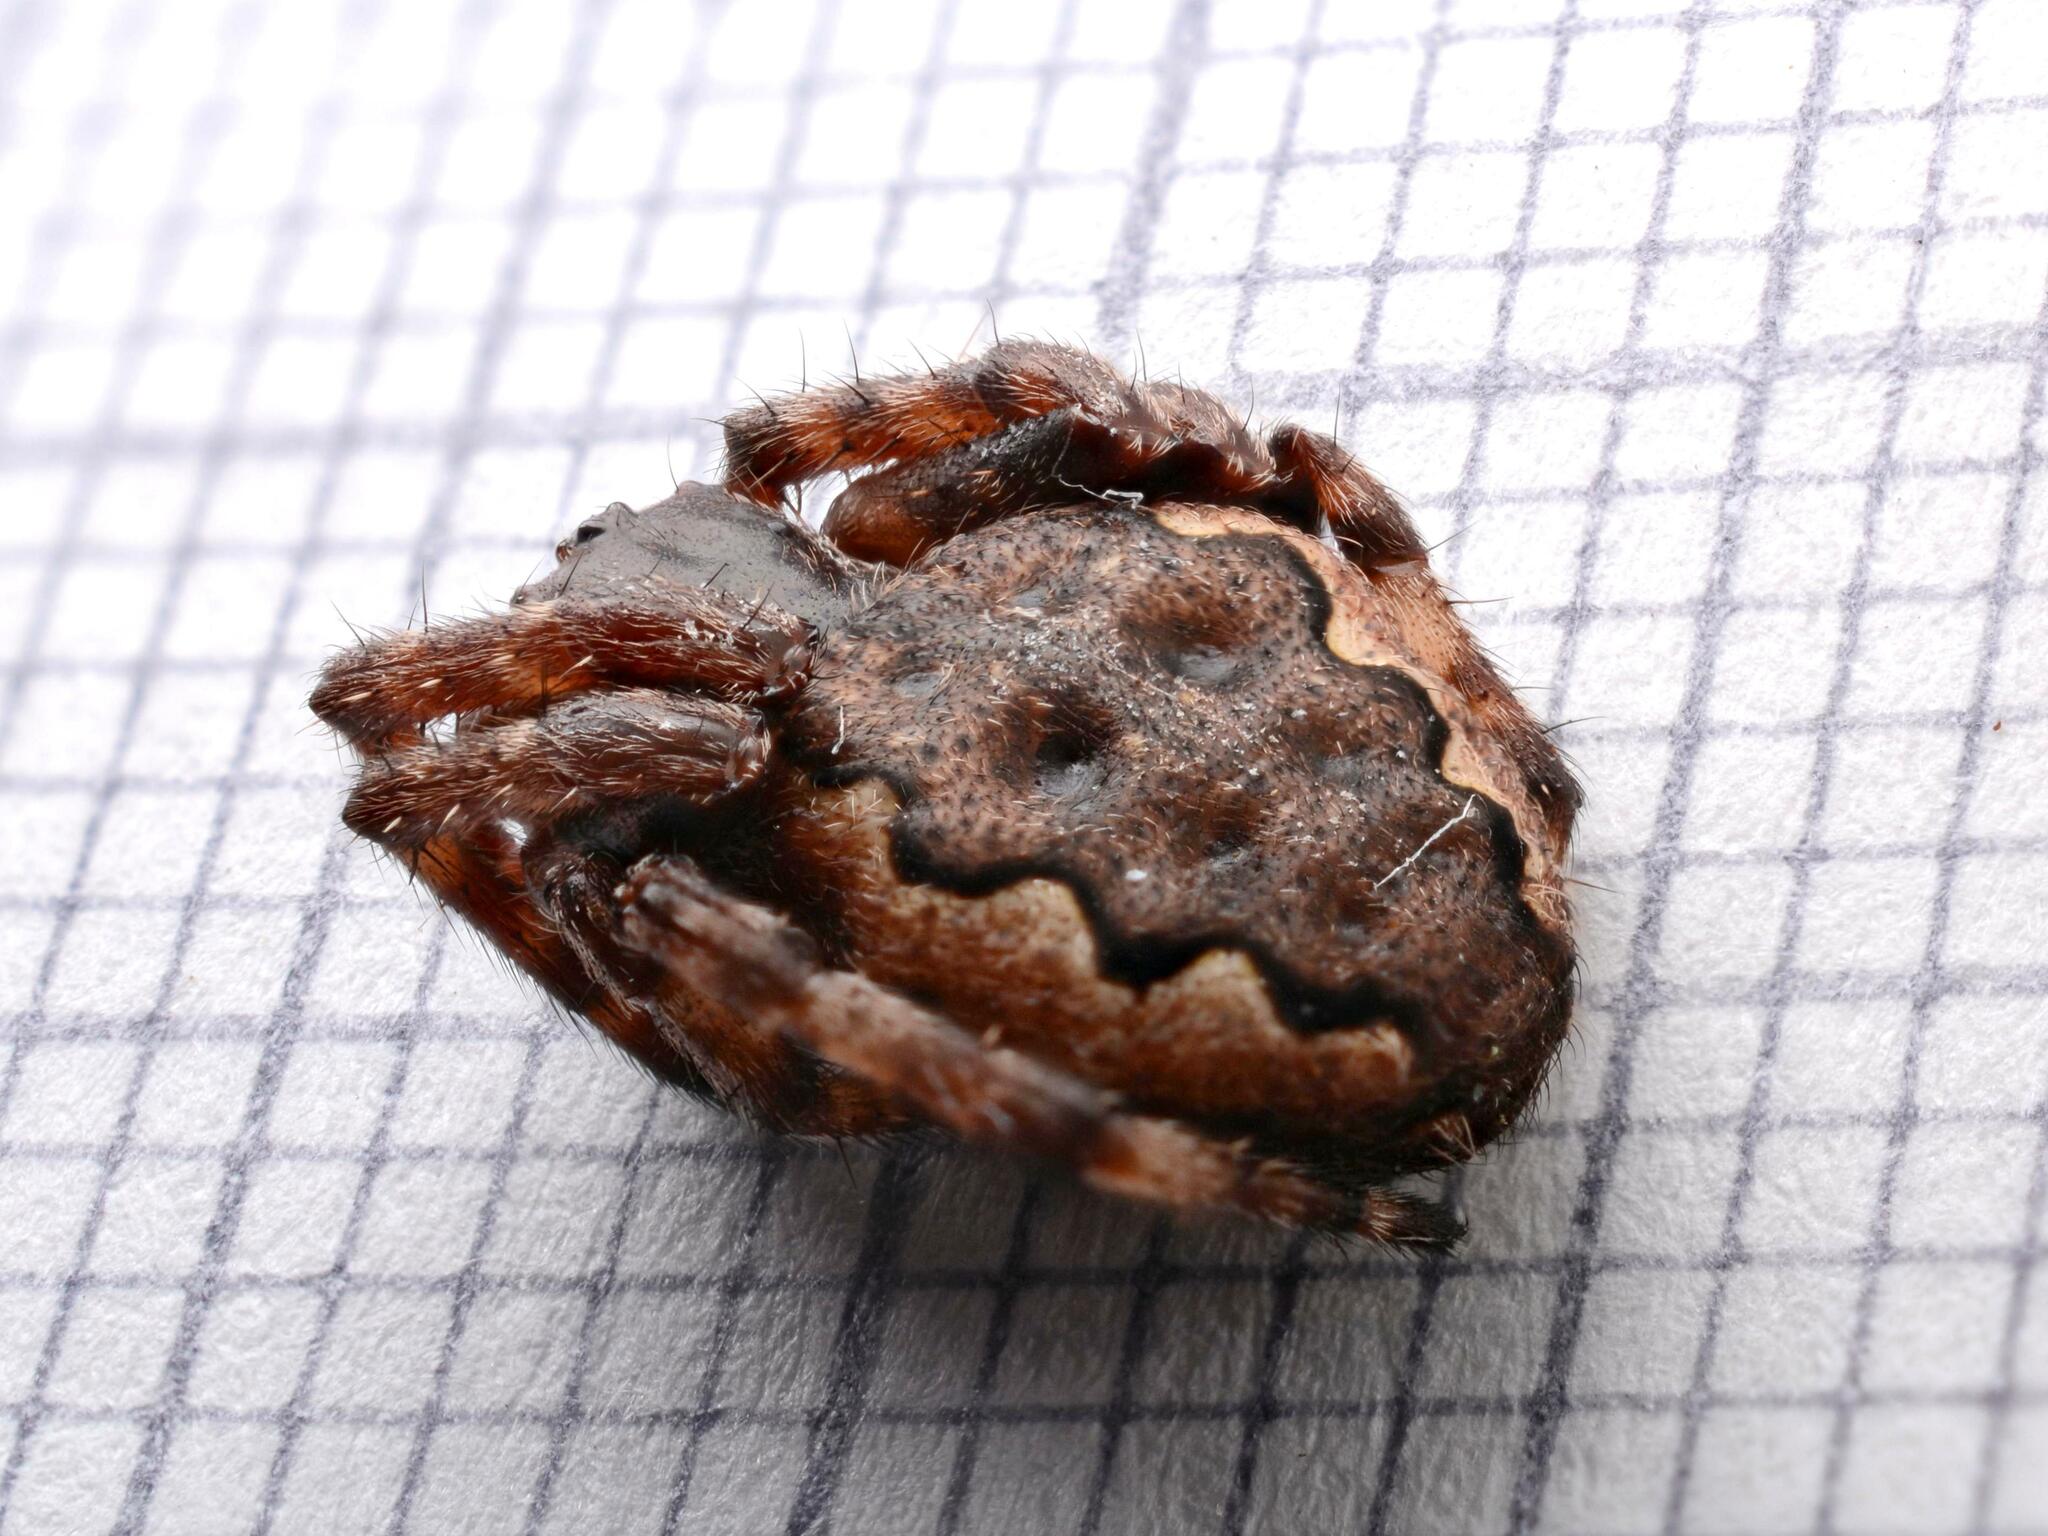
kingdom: Animalia
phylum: Arthropoda
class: Arachnida
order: Araneae
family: Araneidae
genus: Nuctenea
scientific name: Nuctenea umbratica
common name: Toad spider
